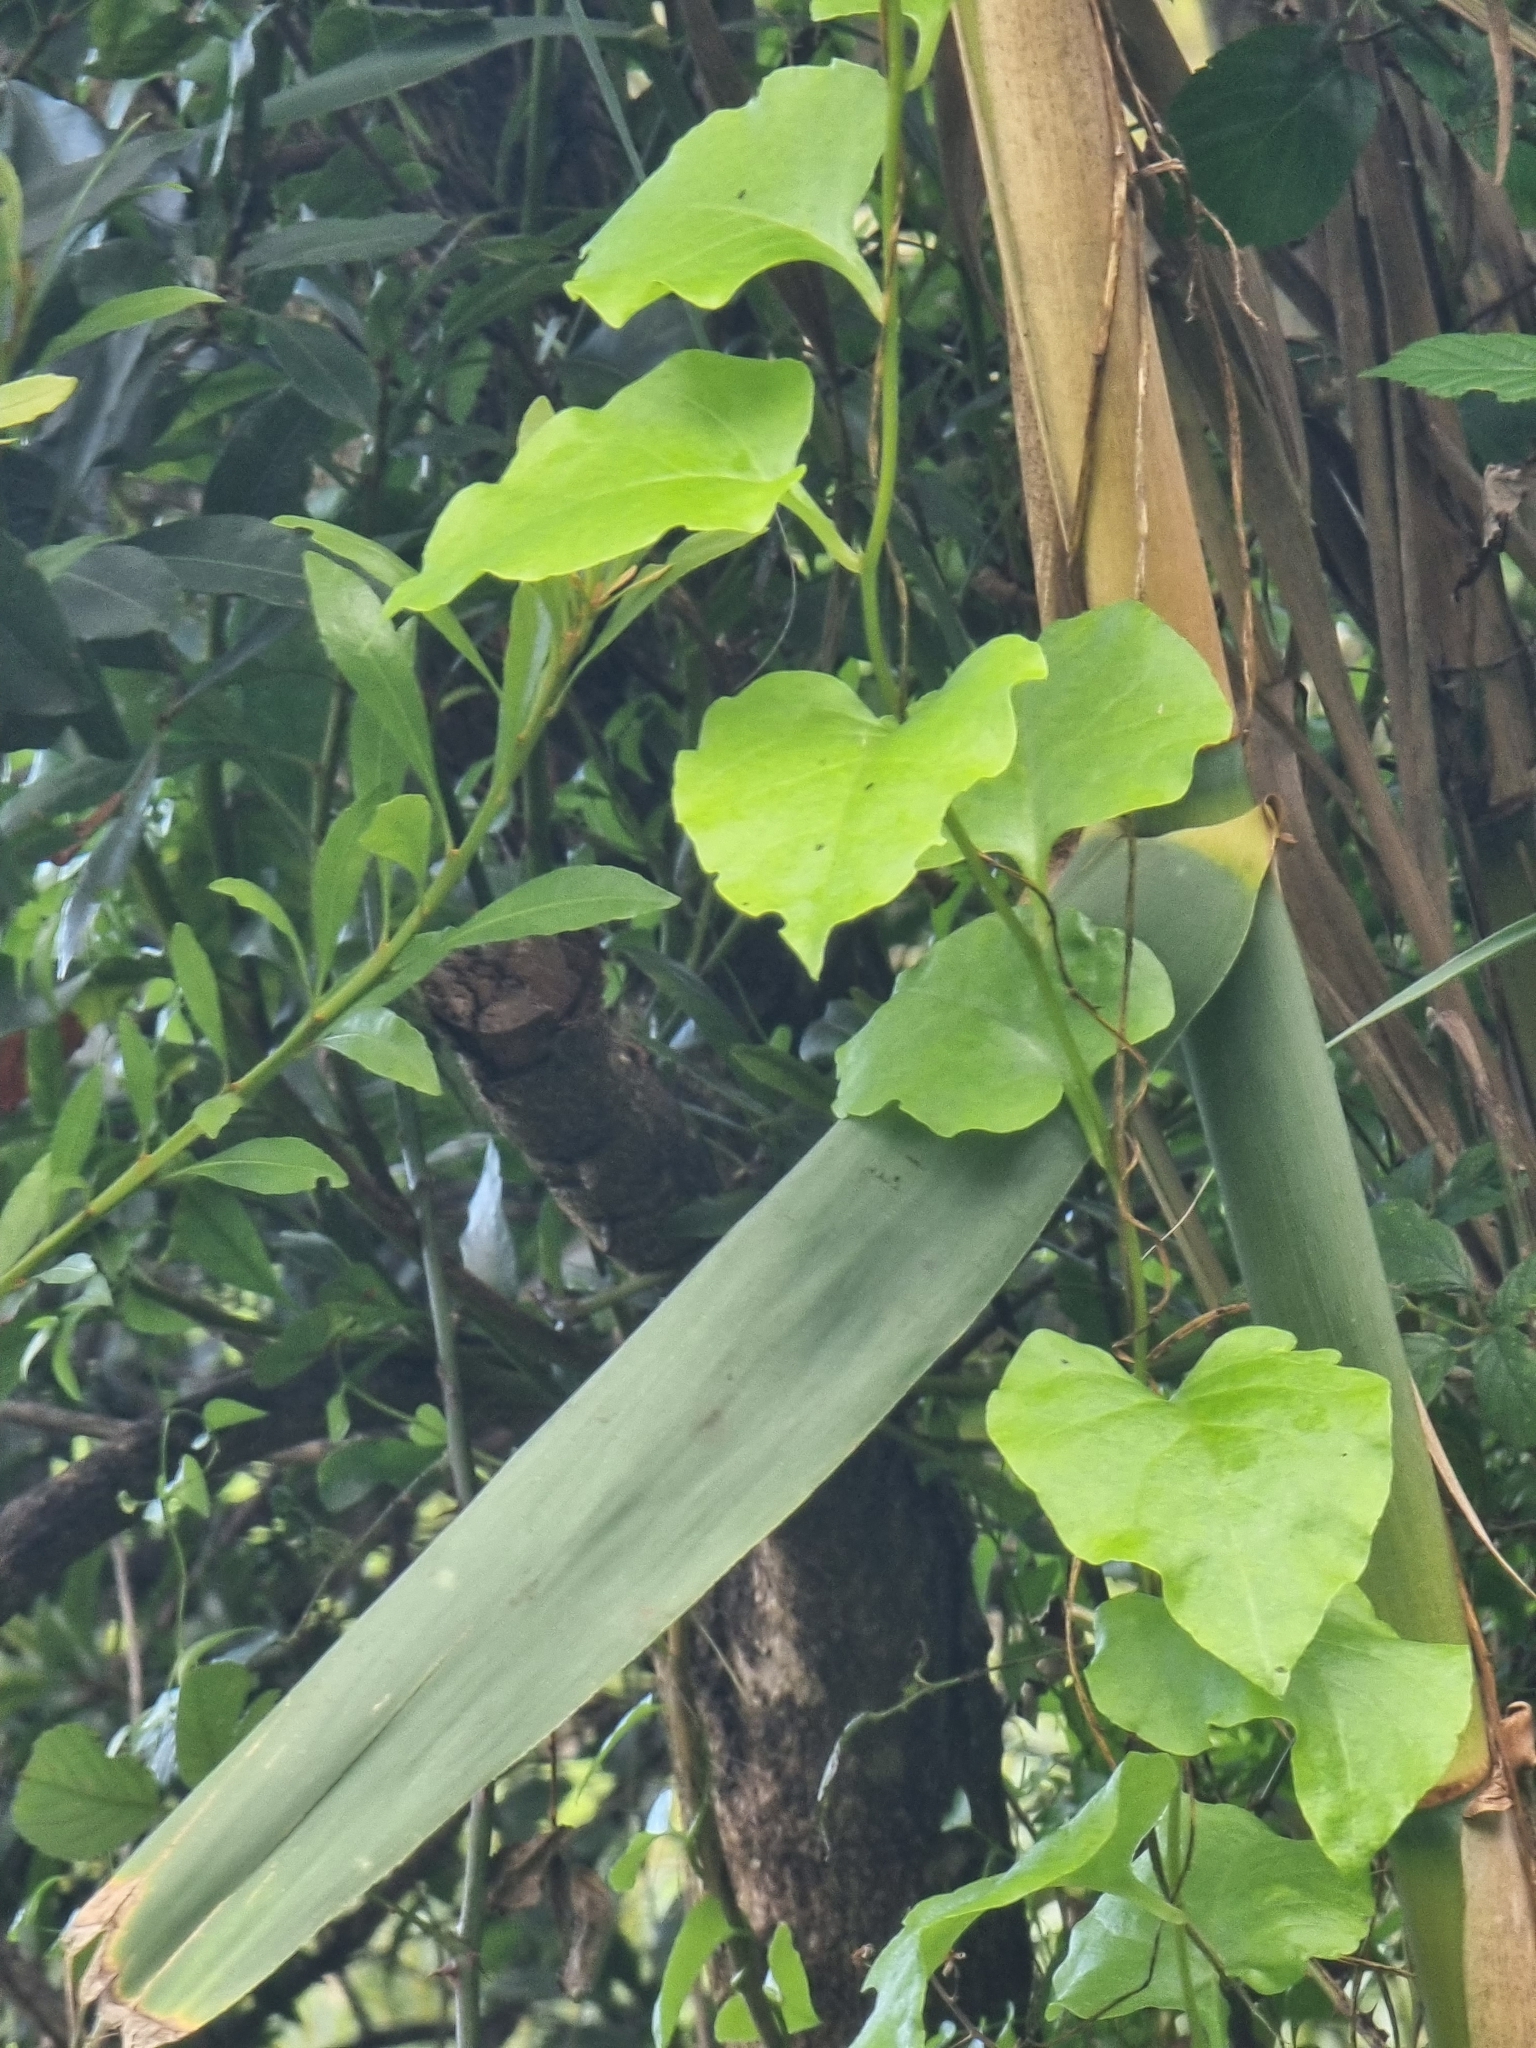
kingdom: Plantae
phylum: Tracheophyta
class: Magnoliopsida
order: Caryophyllales
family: Basellaceae
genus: Anredera
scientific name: Anredera cordifolia
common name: Heartleaf madeiravine
